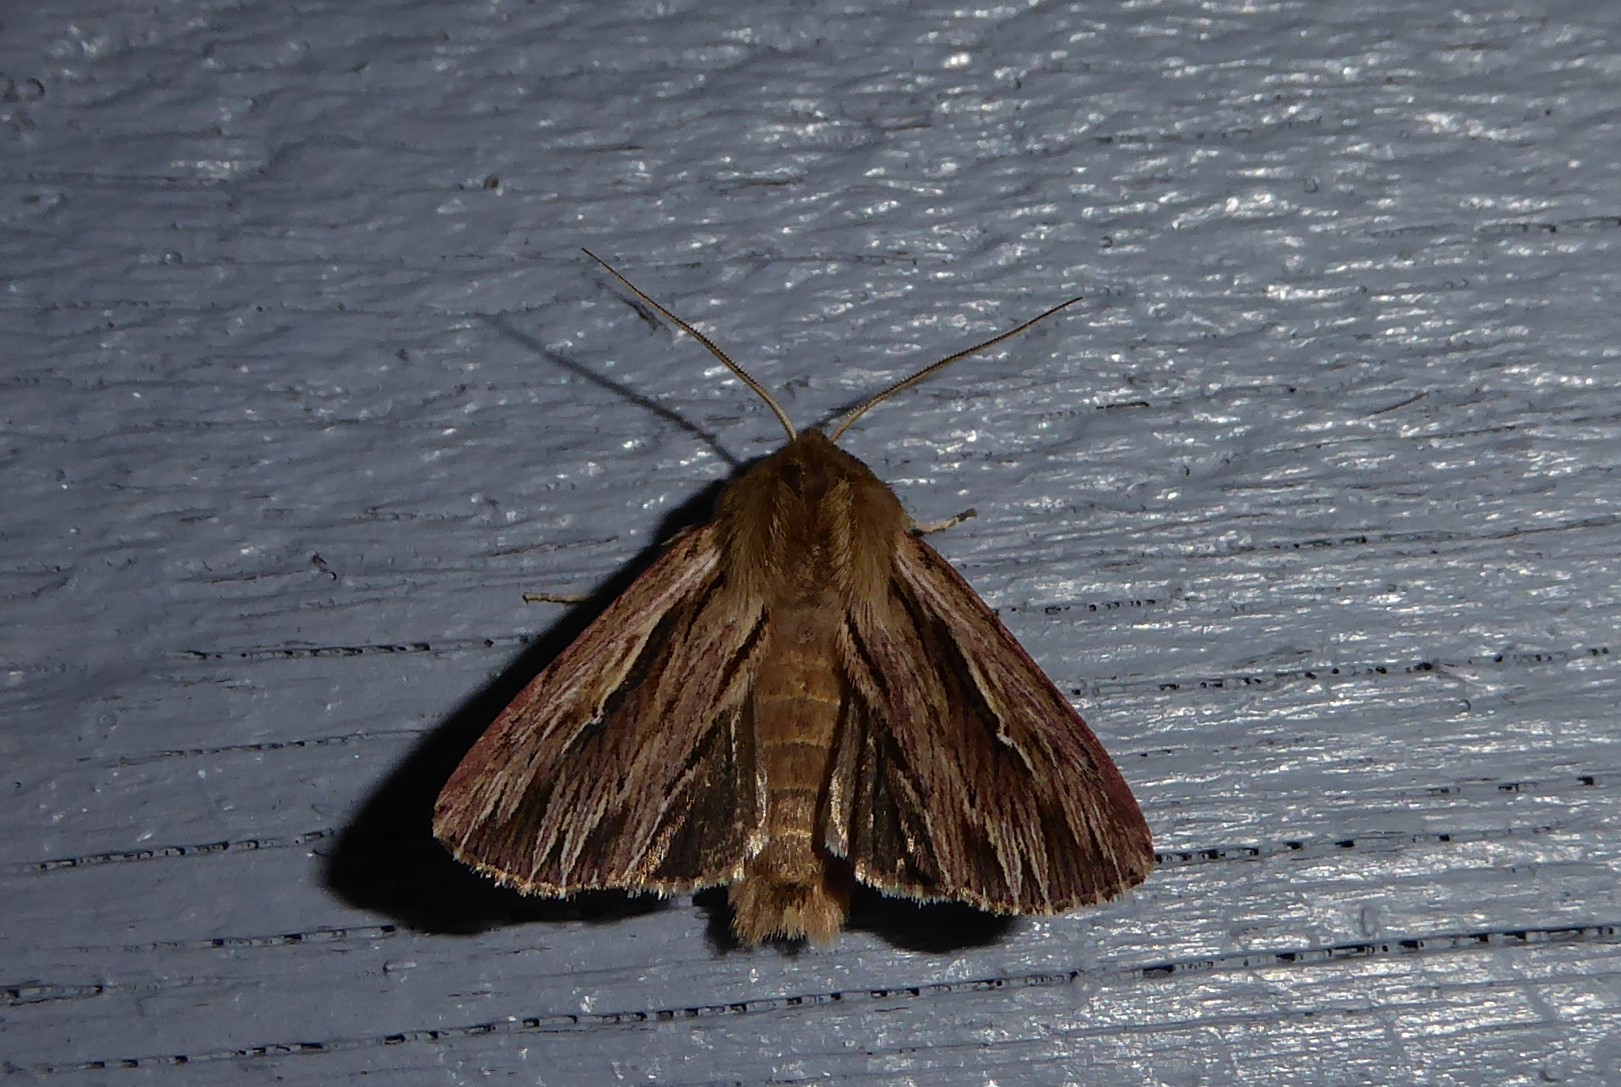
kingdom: Animalia
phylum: Arthropoda
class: Insecta
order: Lepidoptera
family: Noctuidae
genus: Persectania
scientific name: Persectania aversa
